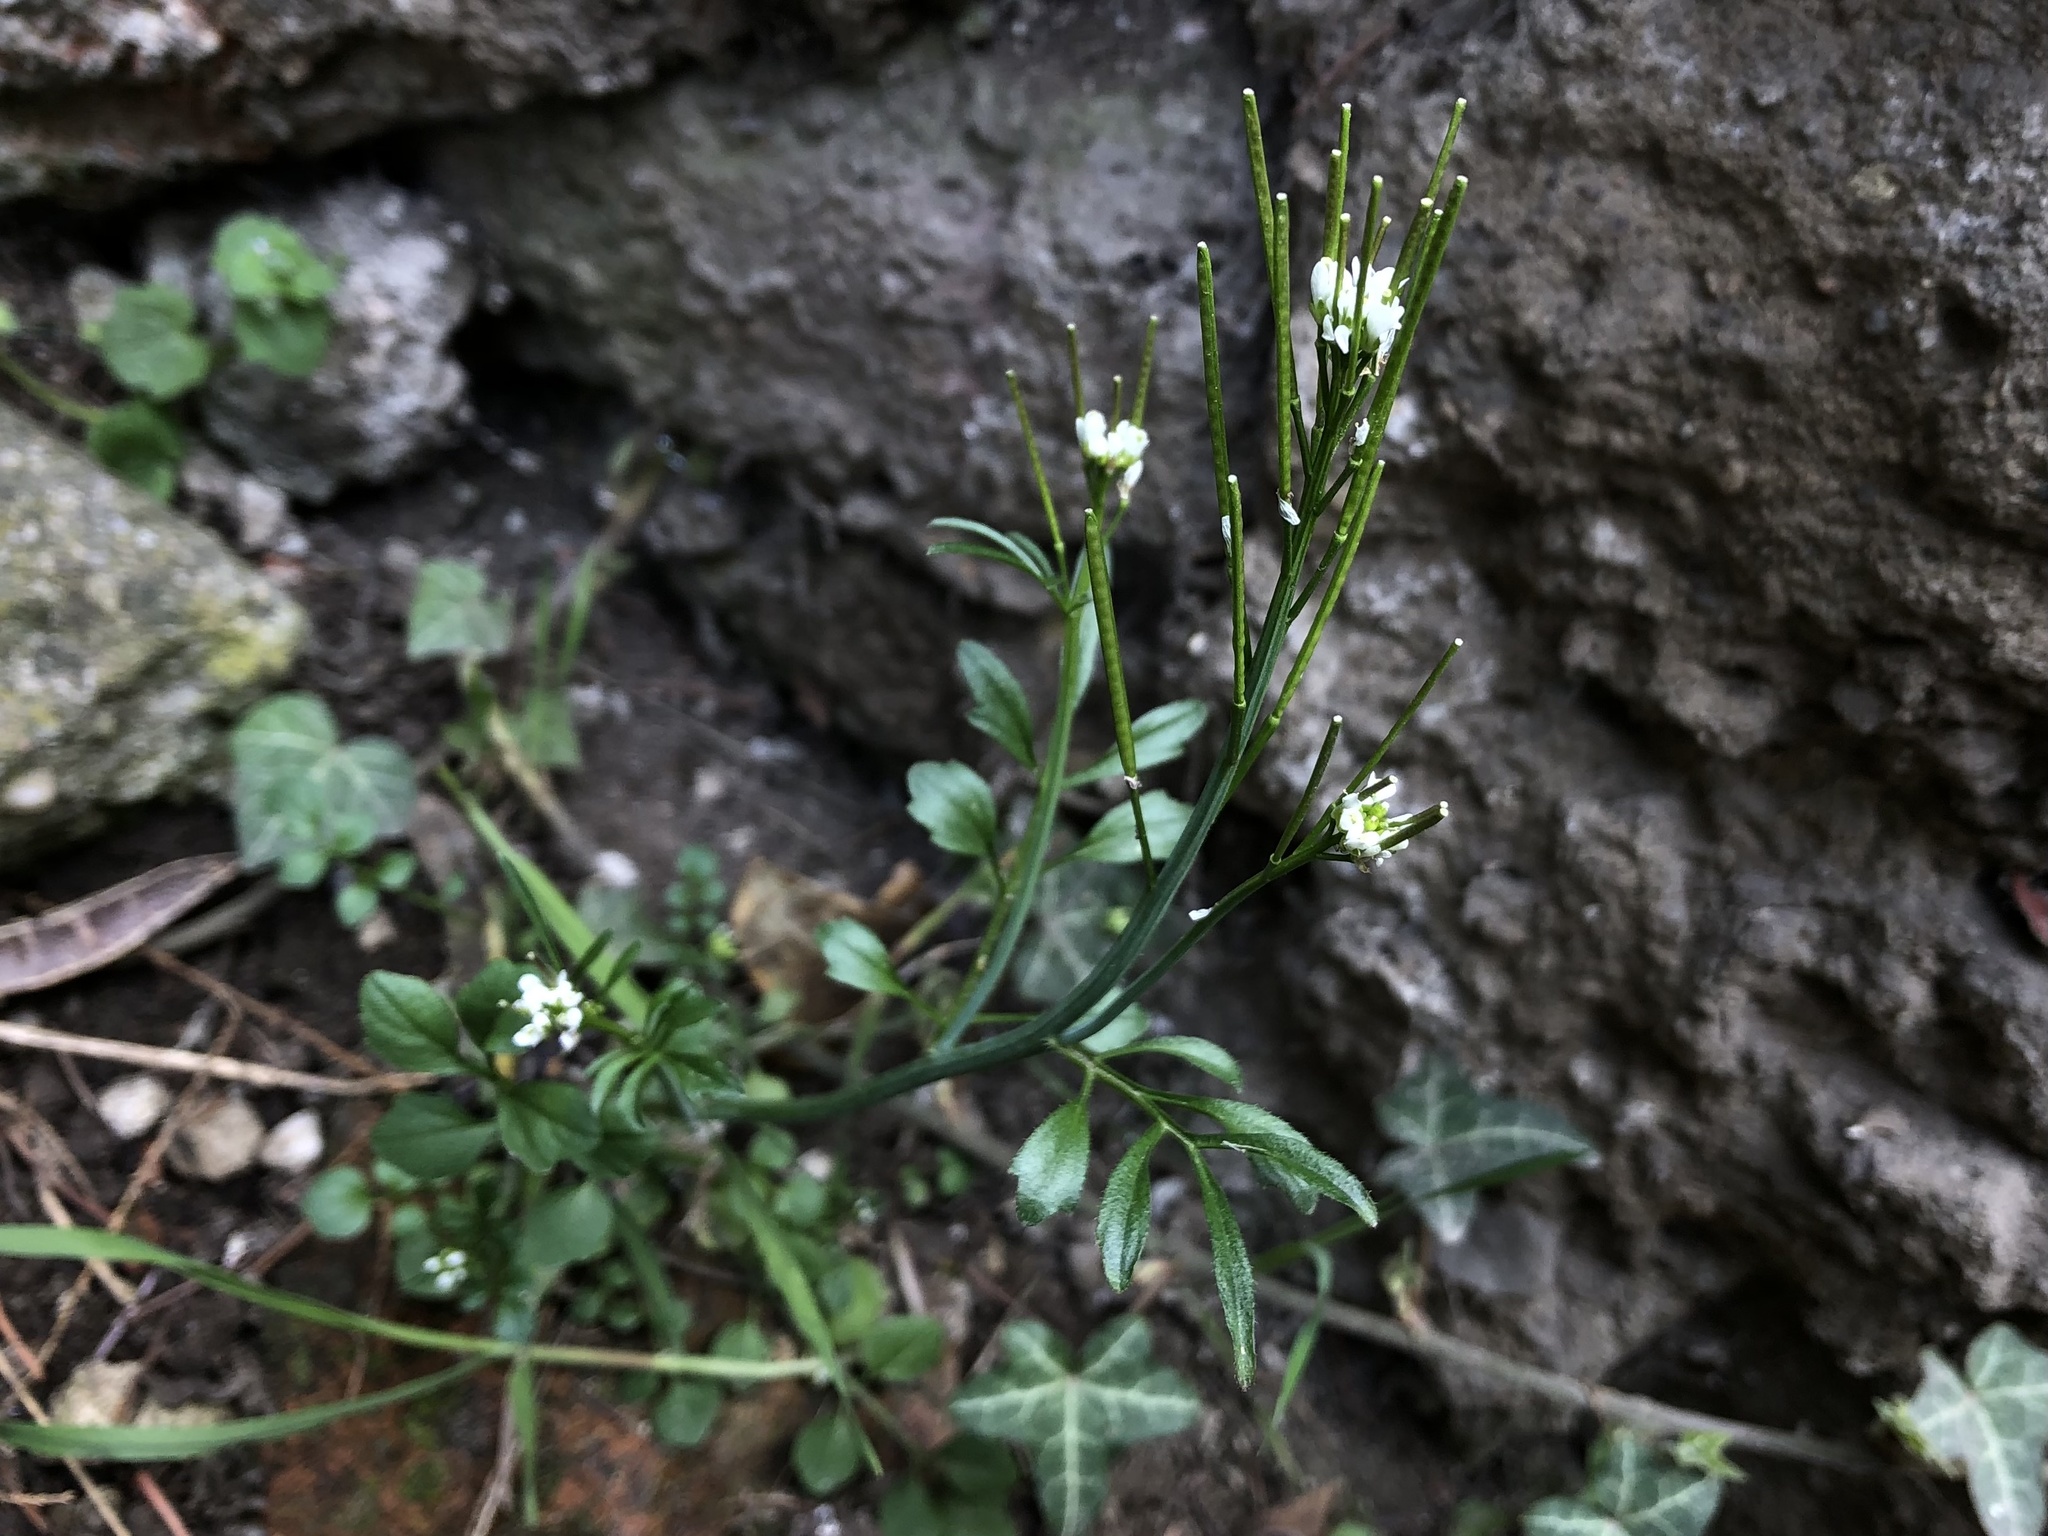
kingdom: Plantae
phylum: Tracheophyta
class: Magnoliopsida
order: Brassicales
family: Brassicaceae
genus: Cardamine
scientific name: Cardamine hirsuta
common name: Hairy bittercress
